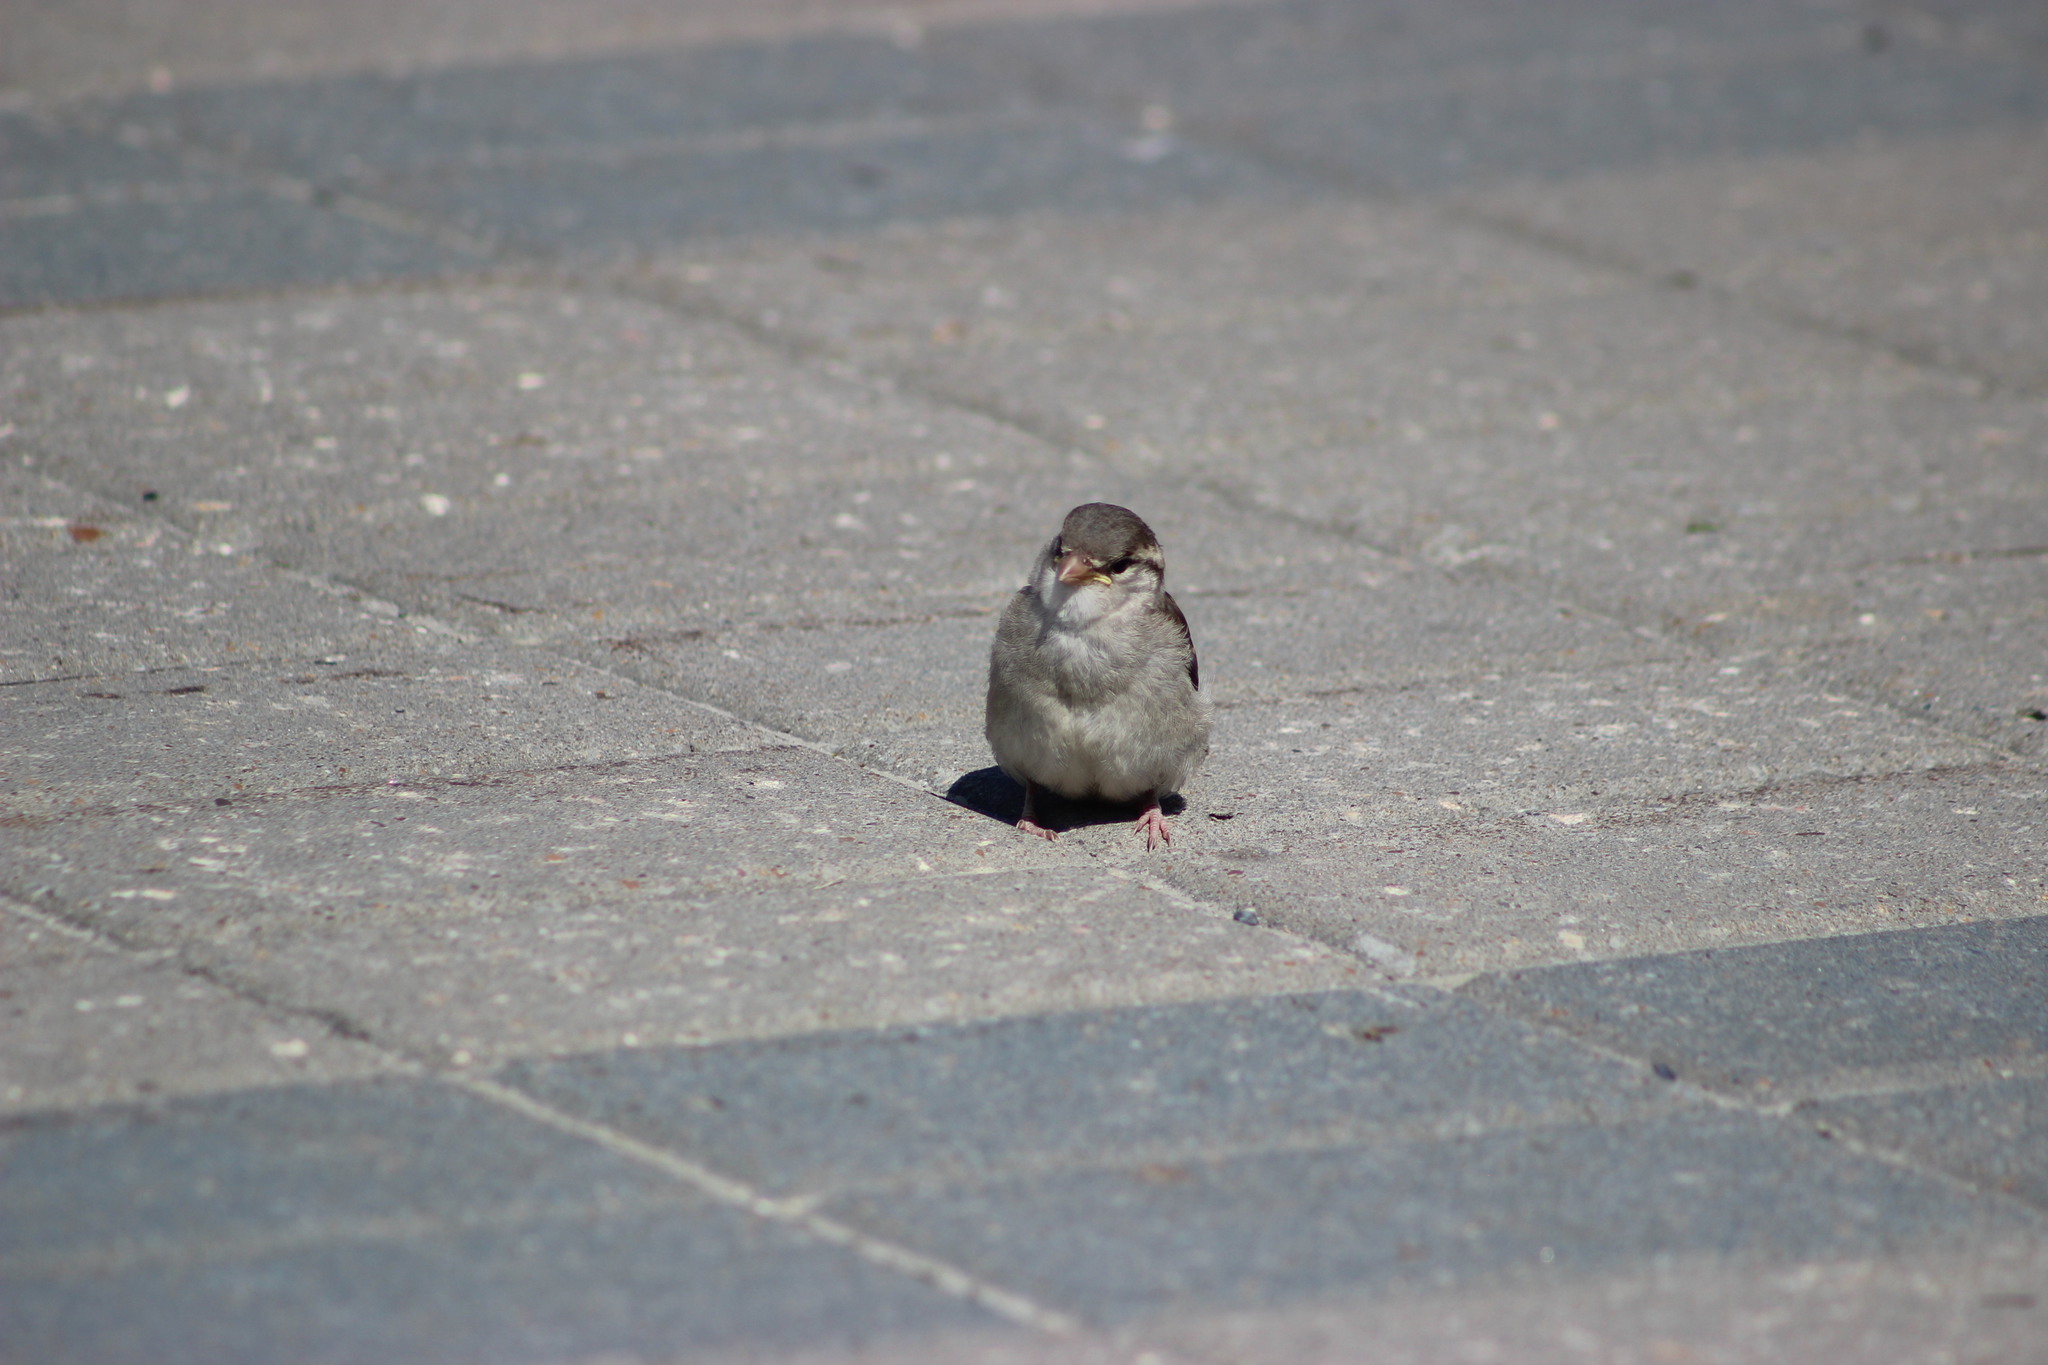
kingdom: Animalia
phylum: Chordata
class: Aves
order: Passeriformes
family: Passeridae
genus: Passer
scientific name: Passer domesticus
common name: House sparrow
